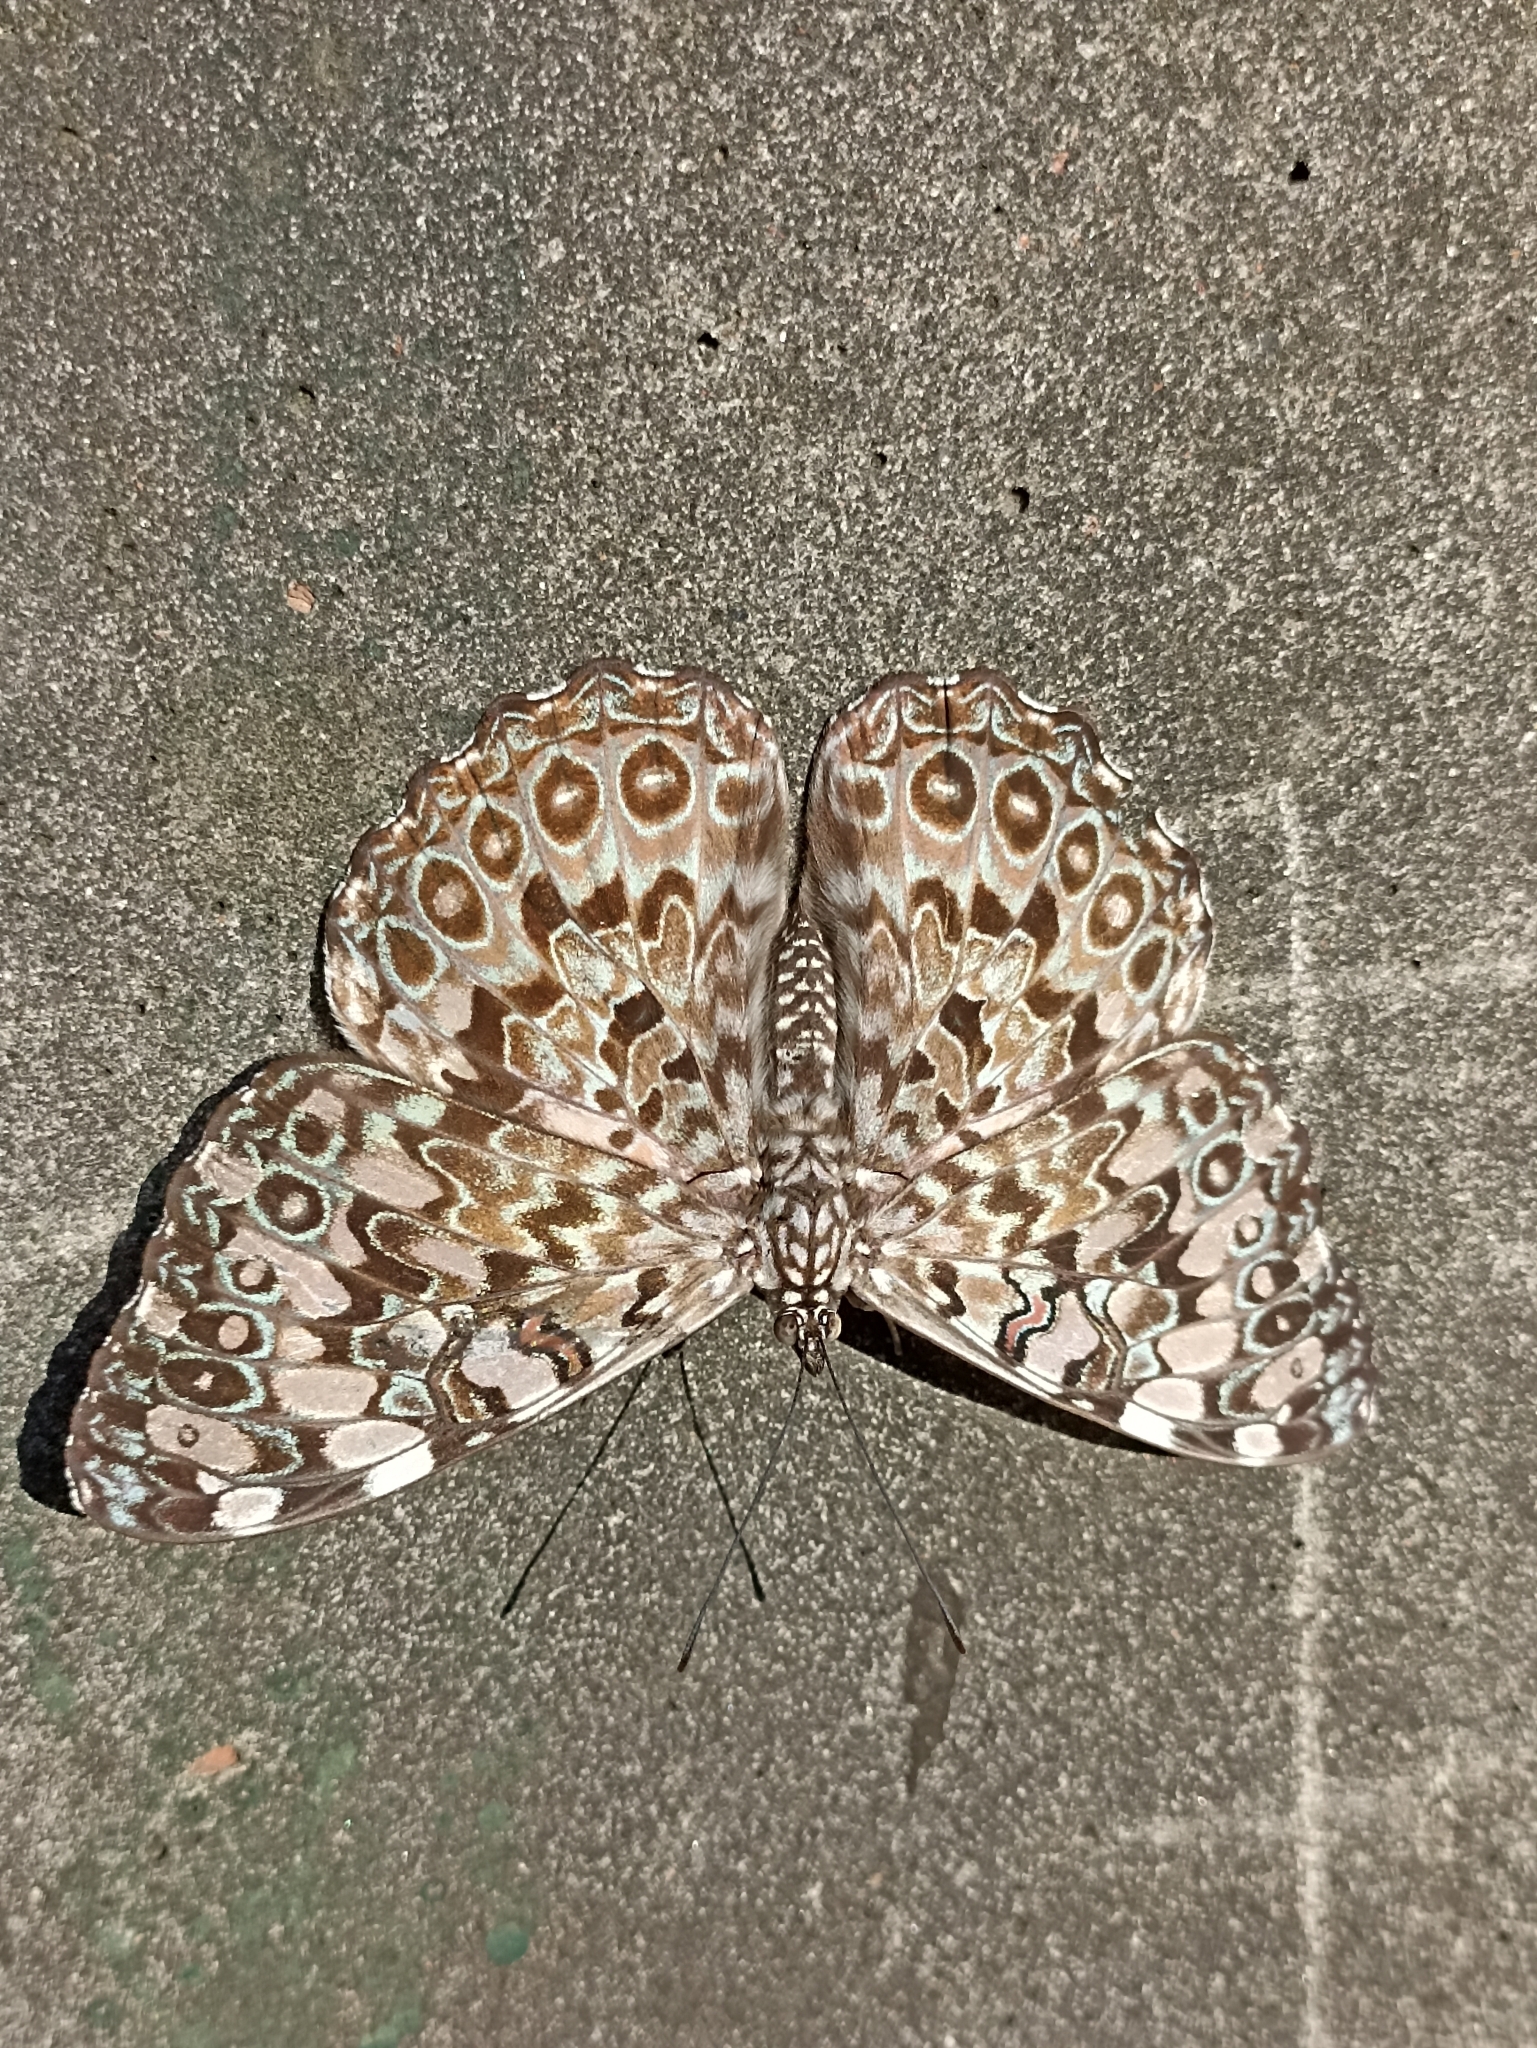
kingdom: Animalia
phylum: Arthropoda
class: Insecta
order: Lepidoptera
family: Nymphalidae
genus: Hamadryas
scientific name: Hamadryas feronia
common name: Variable cracker
